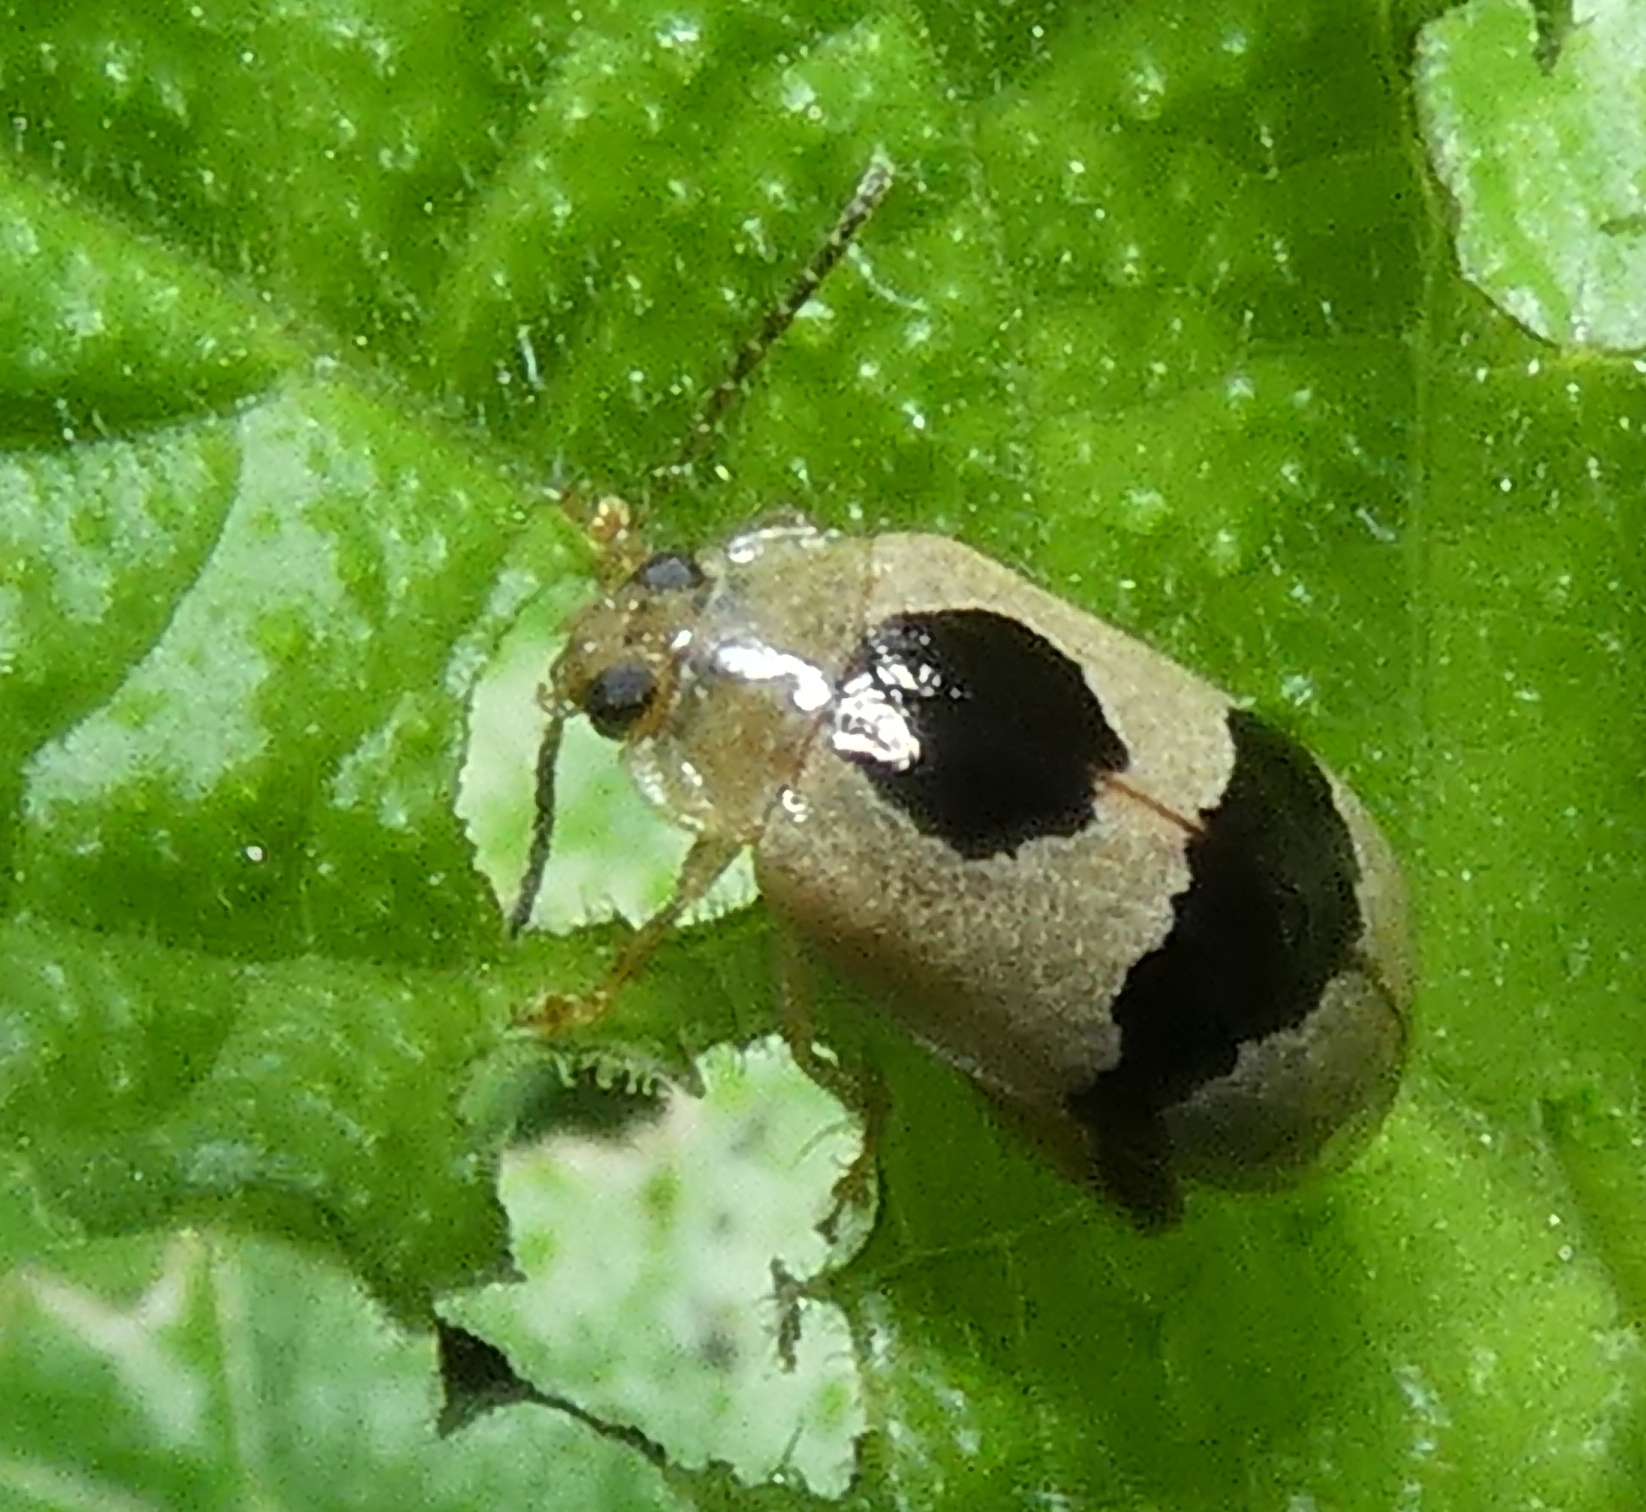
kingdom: Animalia
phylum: Arthropoda
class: Insecta
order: Coleoptera
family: Chrysomelidae
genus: Alagoasa
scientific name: Alagoasa
